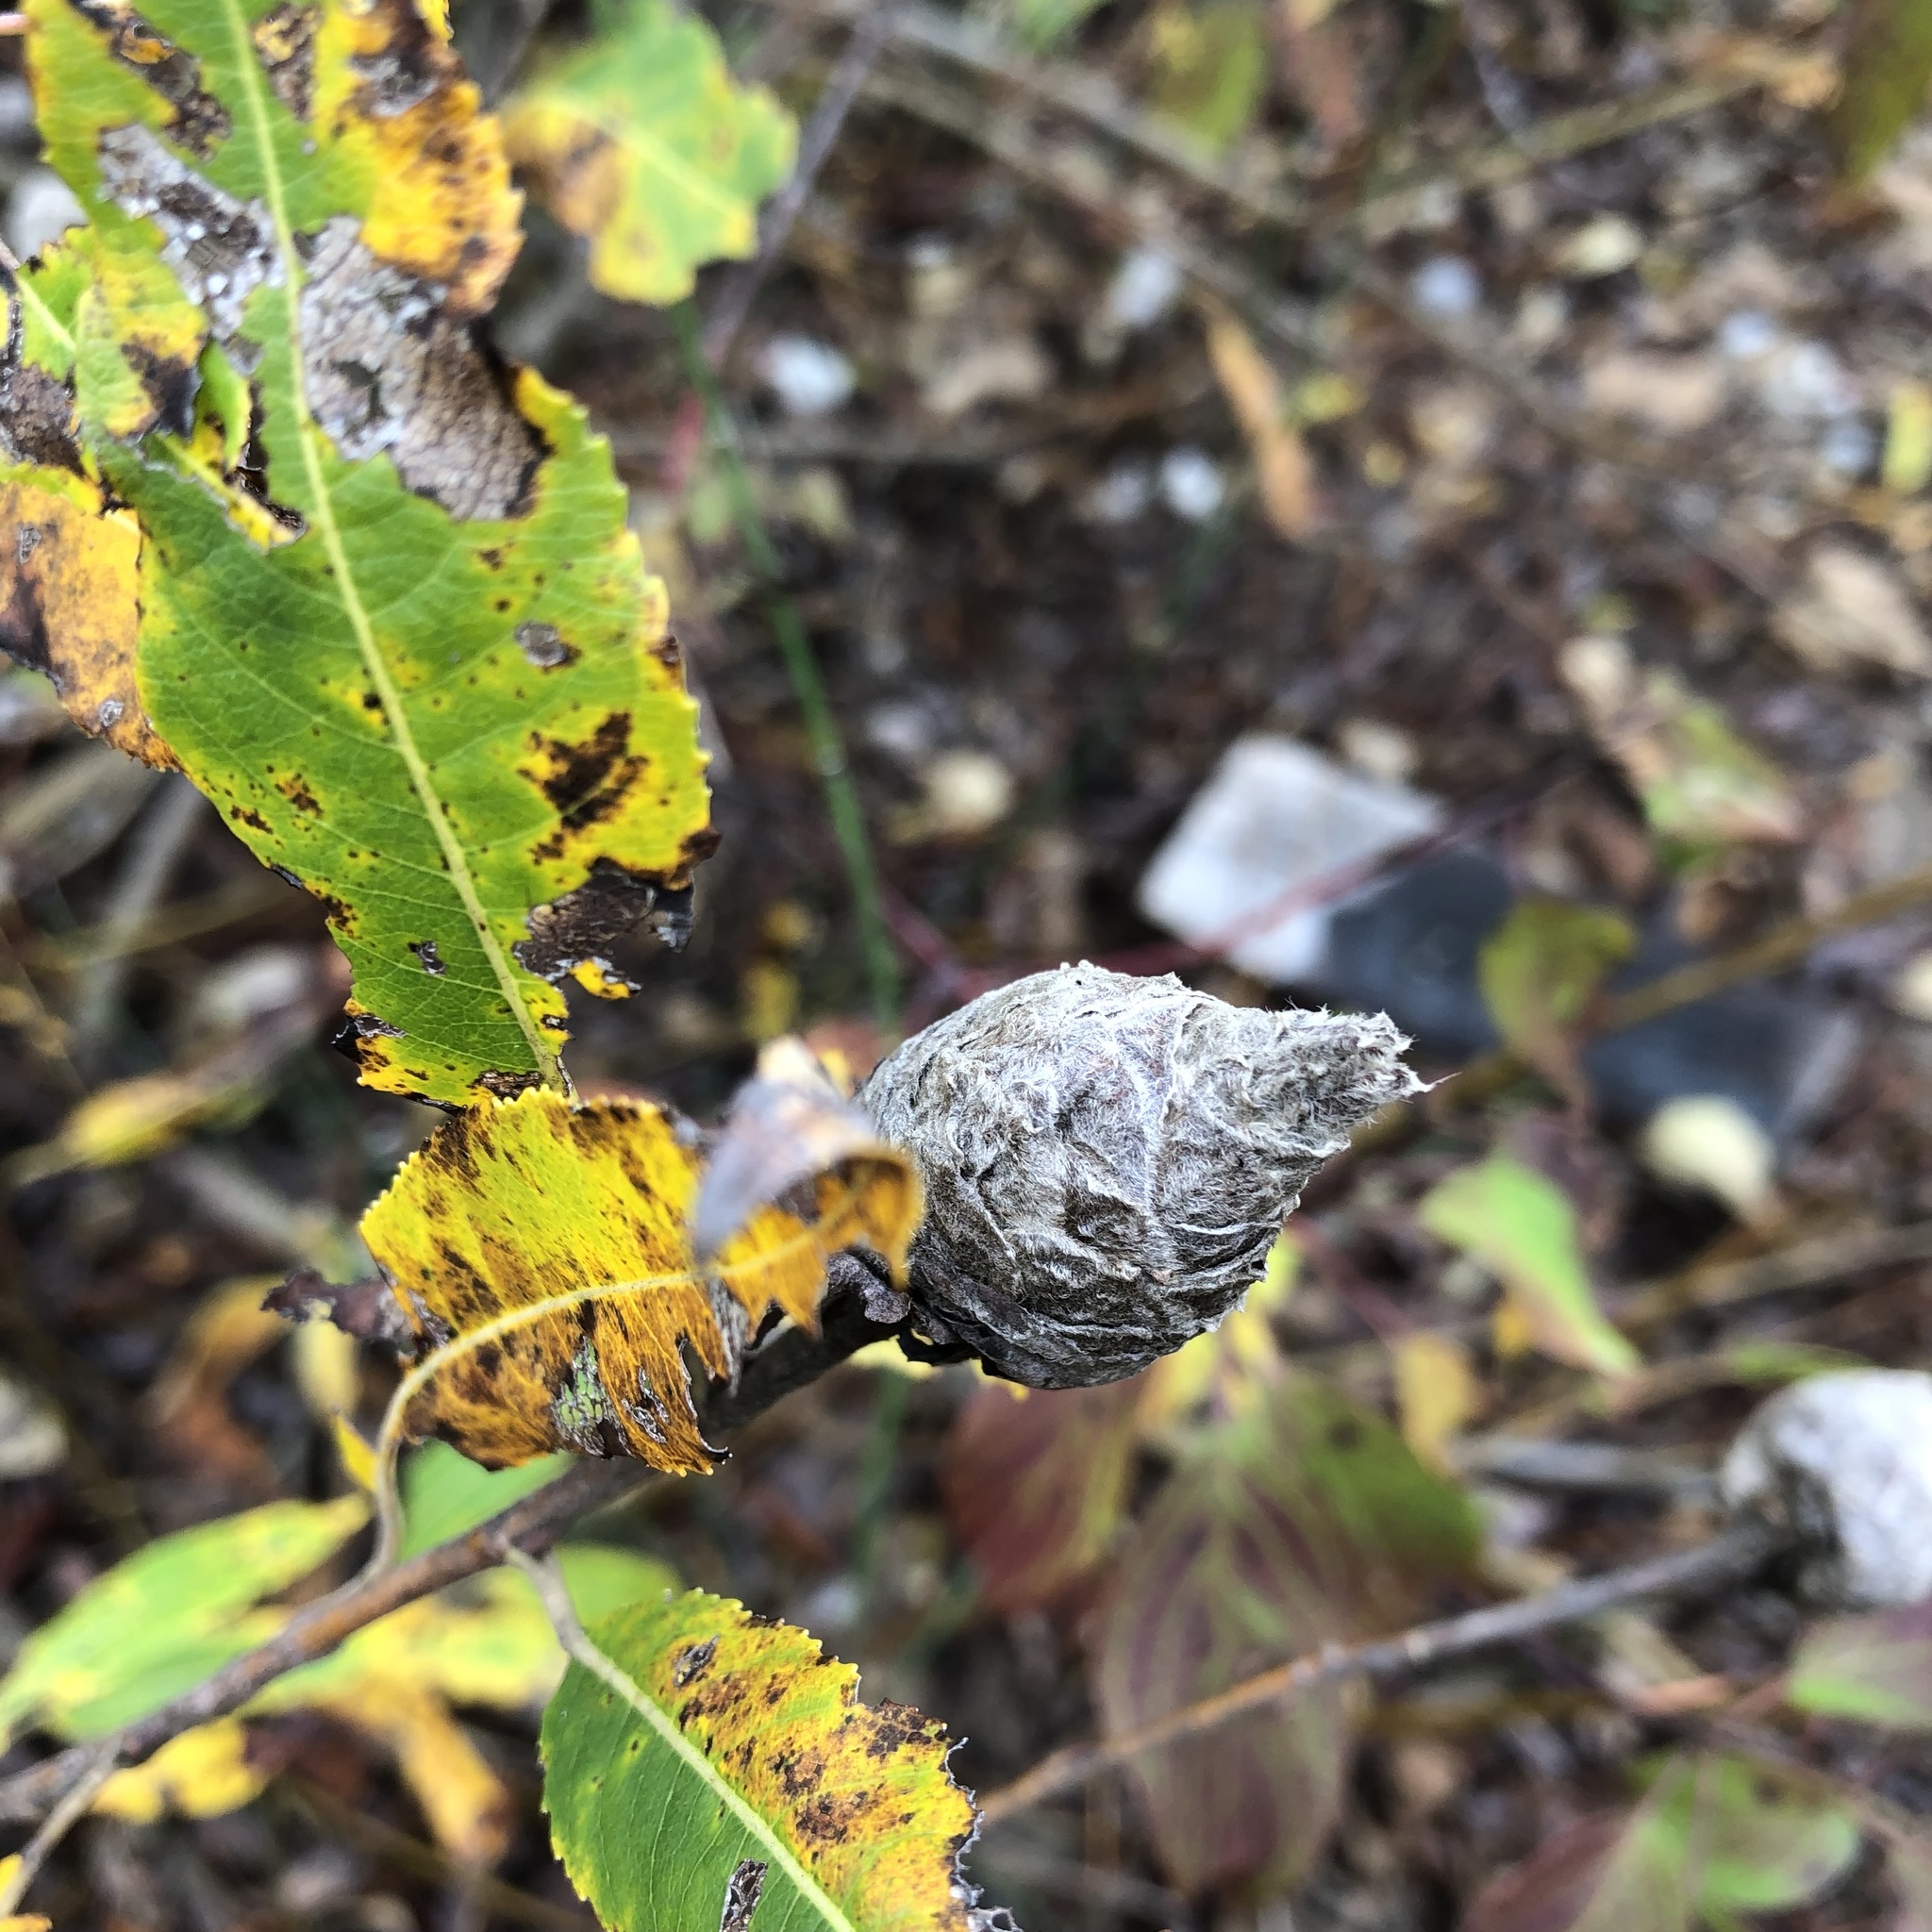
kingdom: Animalia
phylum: Arthropoda
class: Insecta
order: Diptera
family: Cecidomyiidae
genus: Rabdophaga
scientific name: Rabdophaga strobiloides
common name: Willow pinecone gall midge
